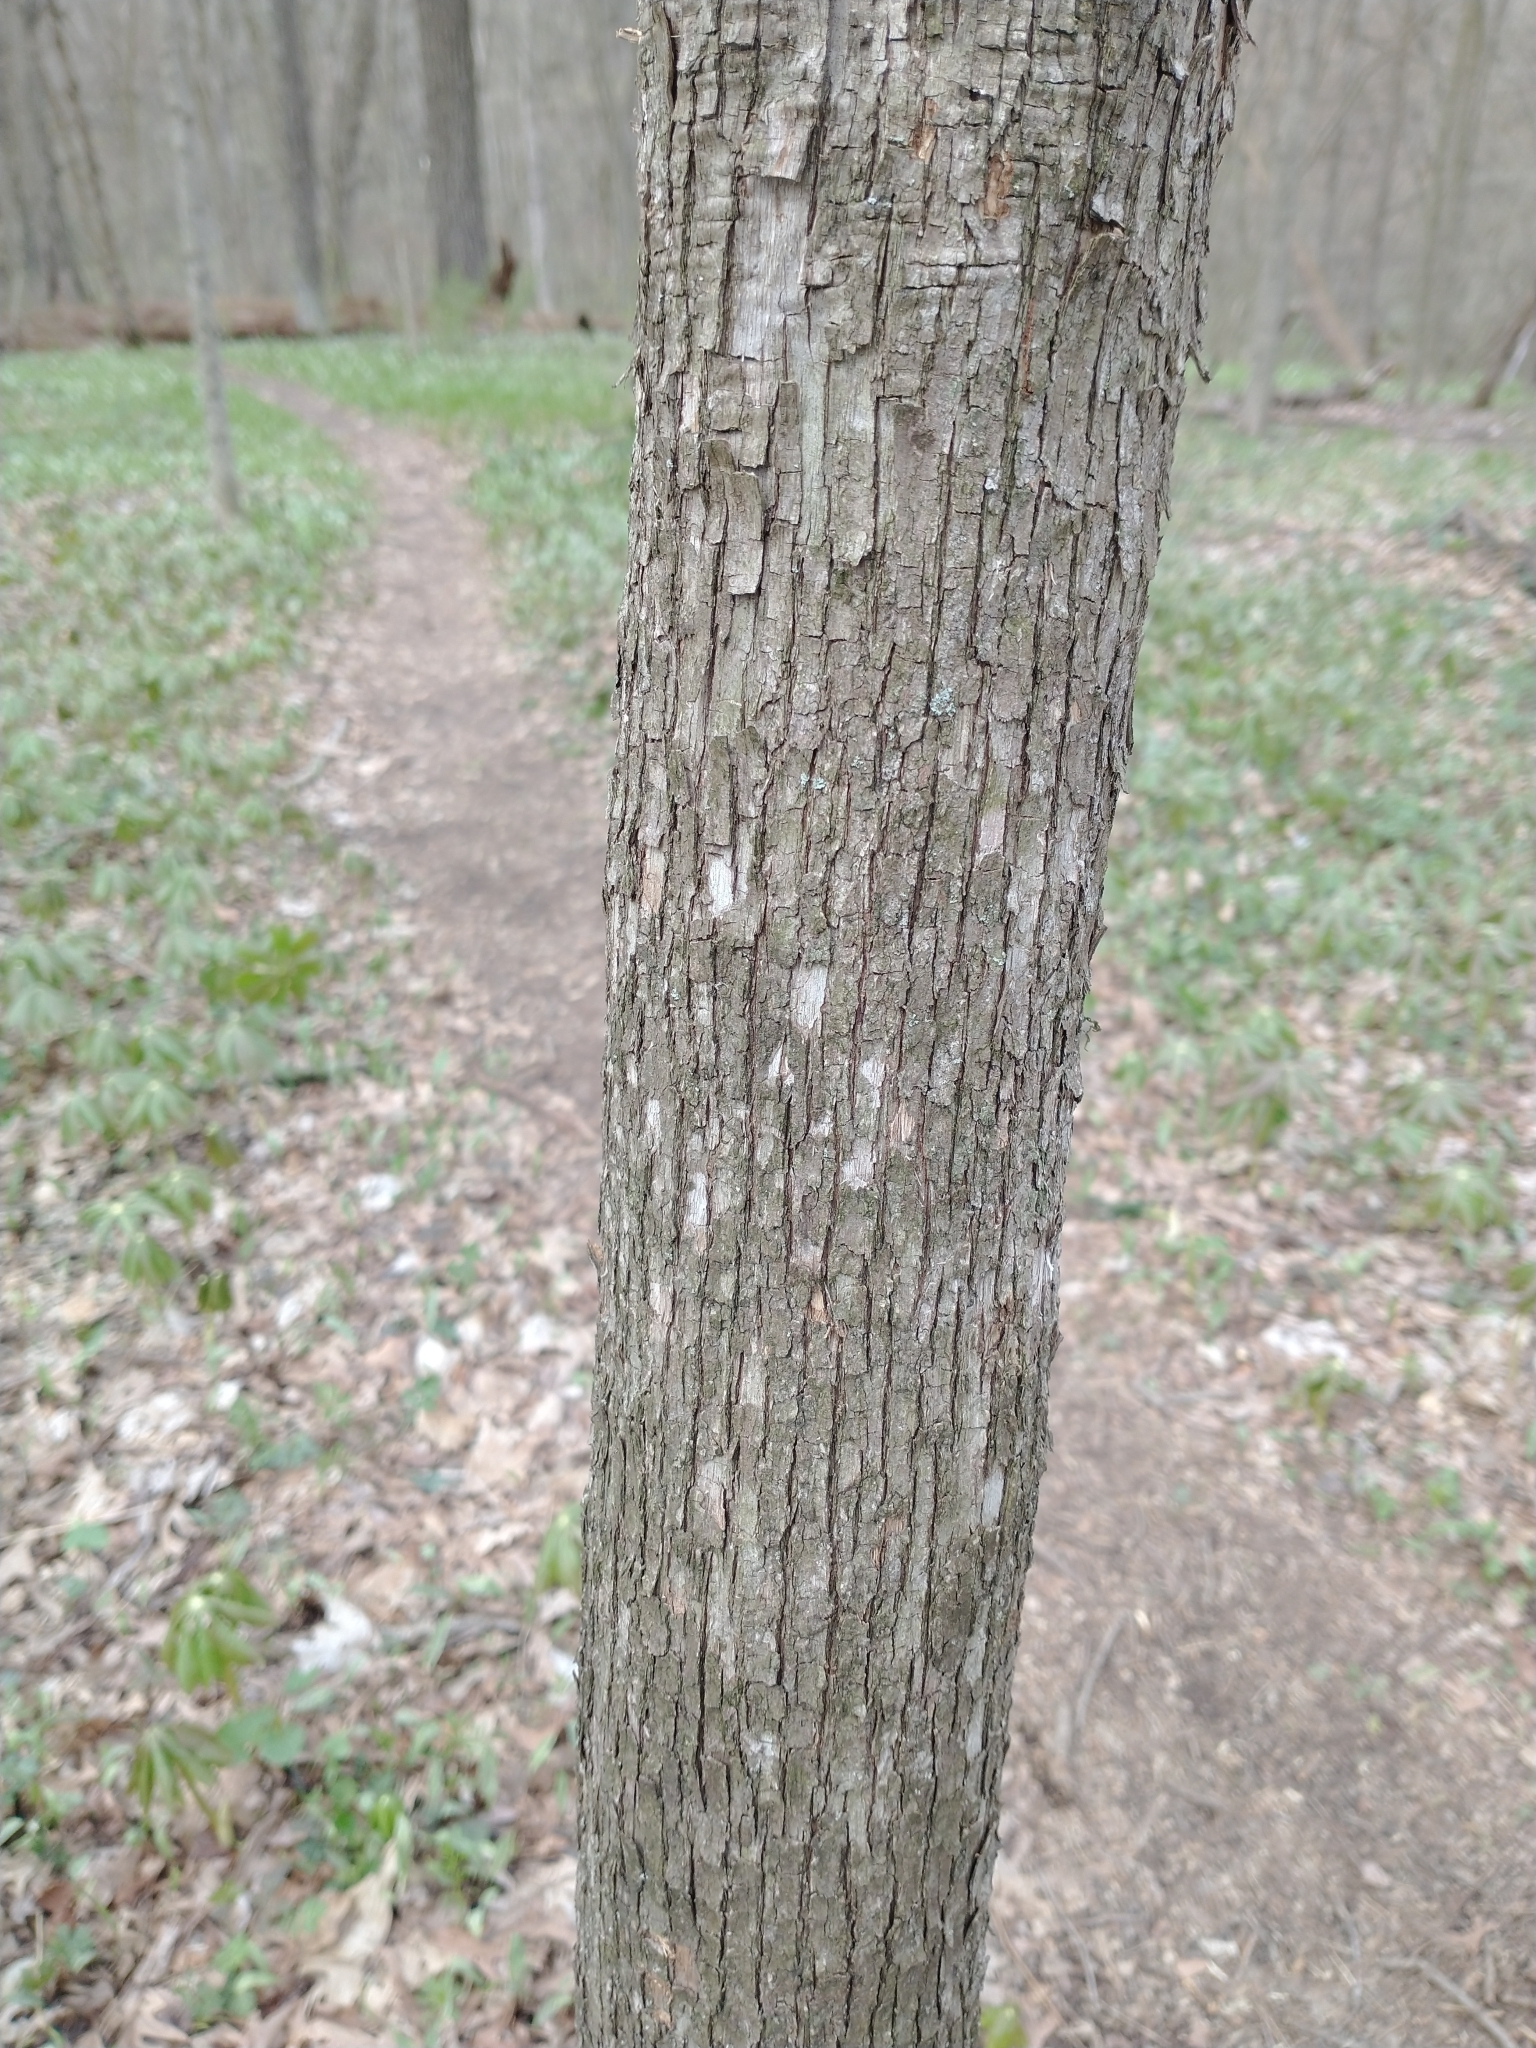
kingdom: Plantae
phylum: Tracheophyta
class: Magnoliopsida
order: Fagales
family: Betulaceae
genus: Ostrya
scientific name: Ostrya virginiana
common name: Ironwood
